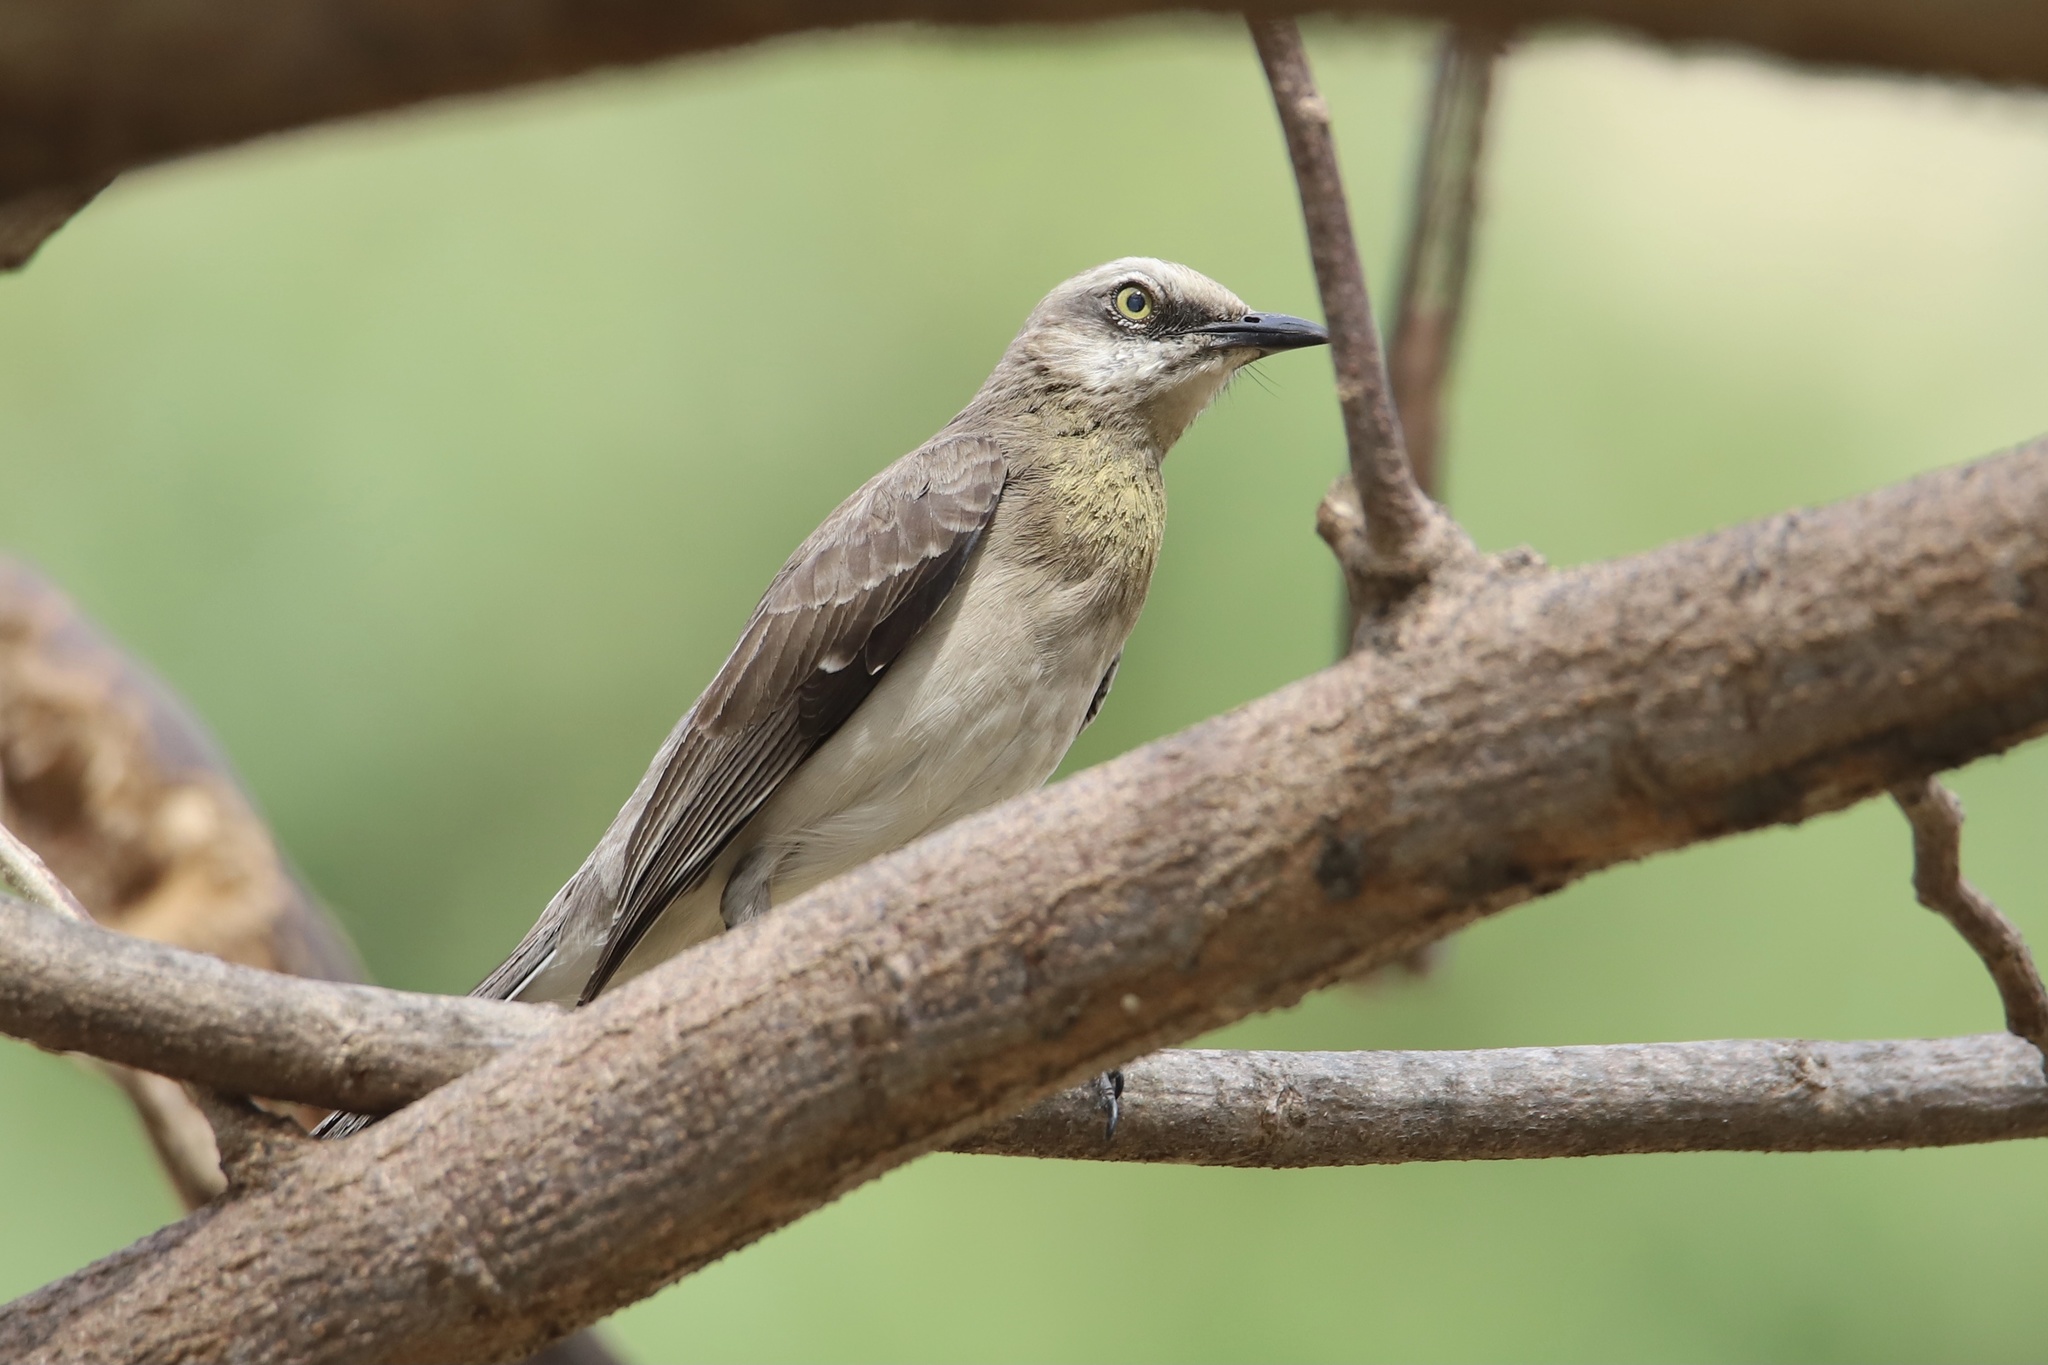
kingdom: Animalia
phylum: Chordata
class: Aves
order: Passeriformes
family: Mimidae
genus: Mimus
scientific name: Mimus gilvus
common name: Tropical mockingbird
